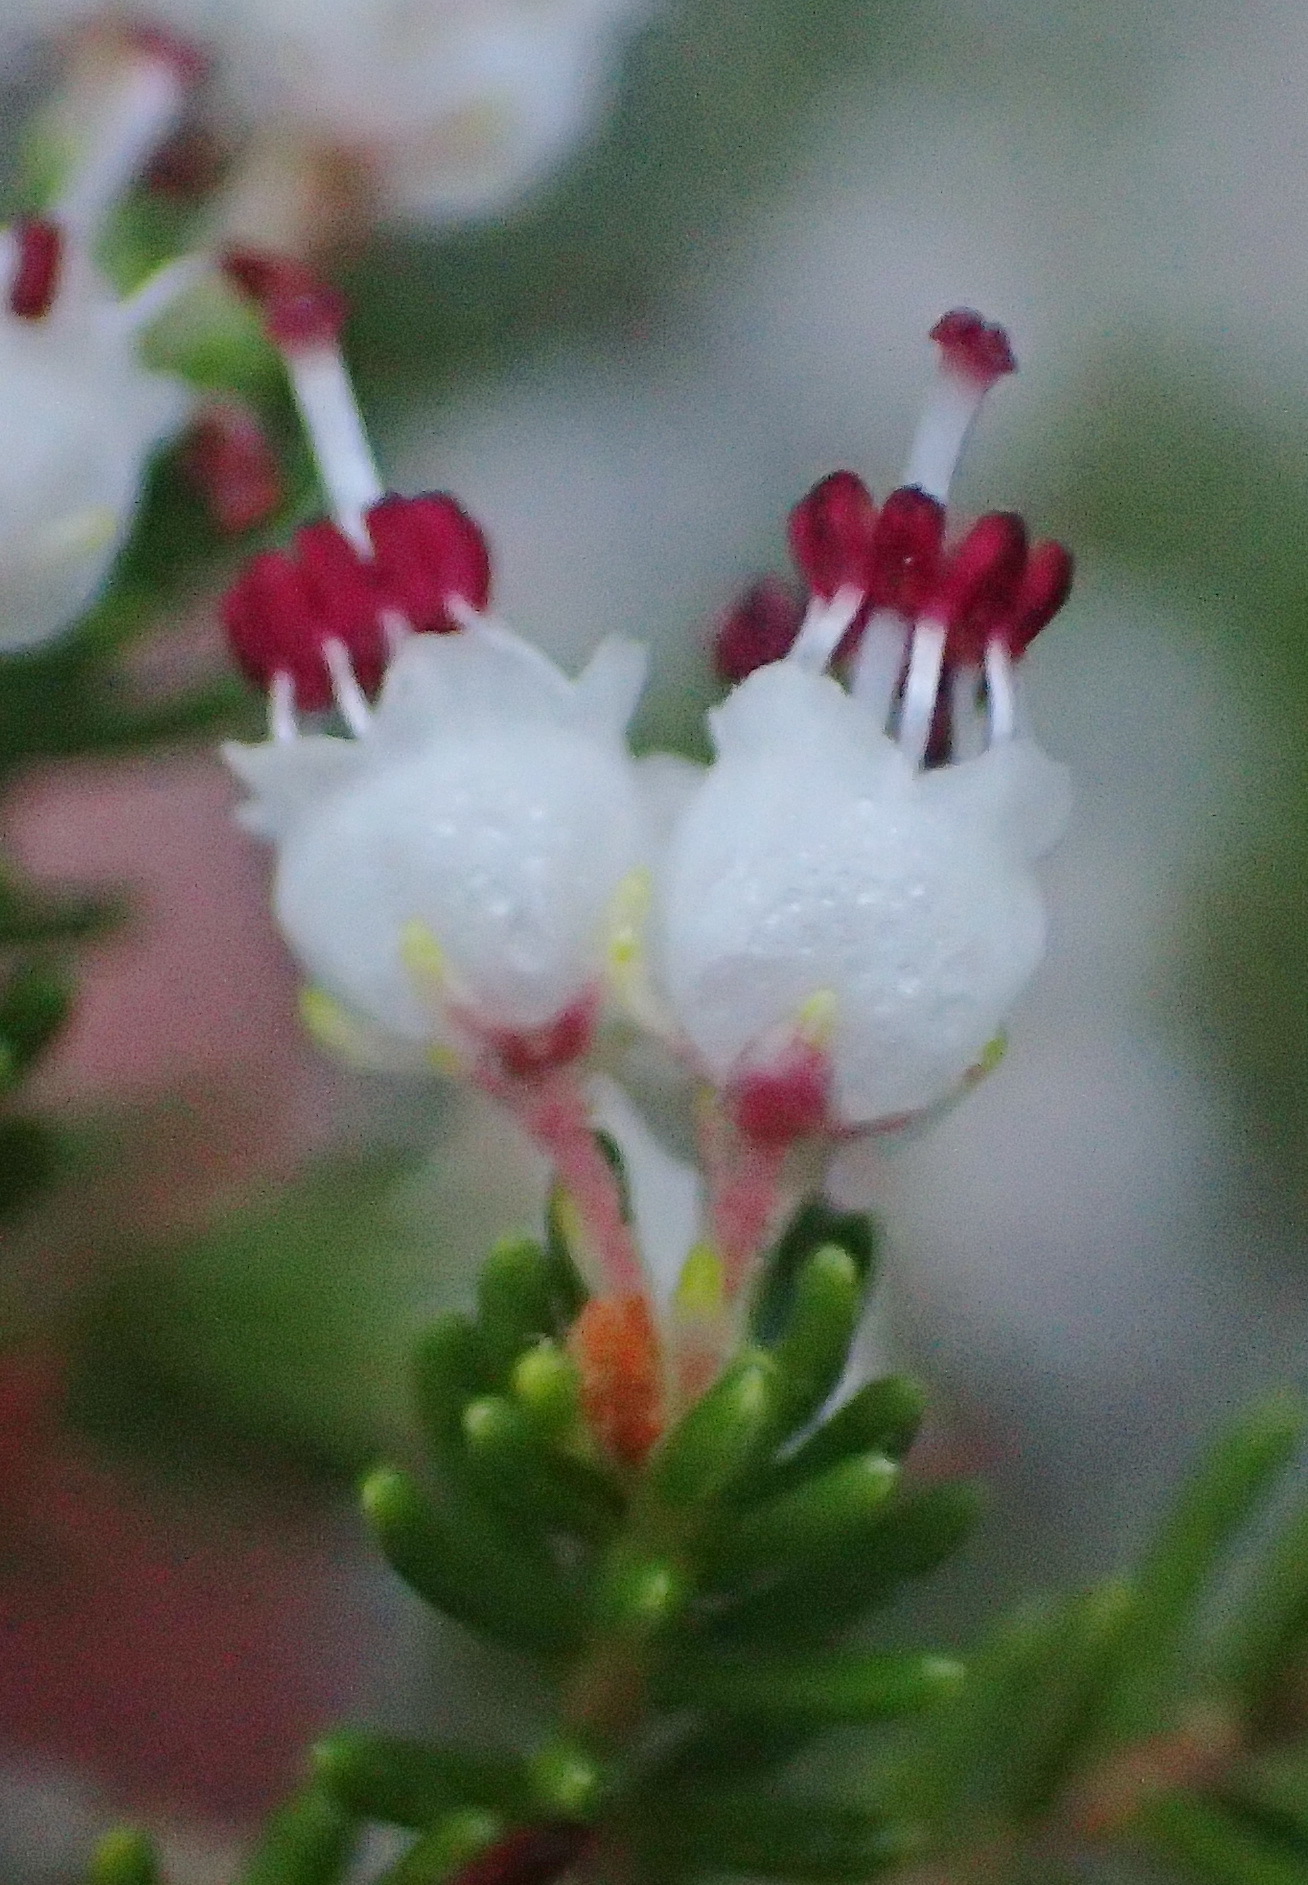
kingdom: Plantae
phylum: Tracheophyta
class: Magnoliopsida
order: Ericales
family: Ericaceae
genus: Erica
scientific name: Erica demissa
